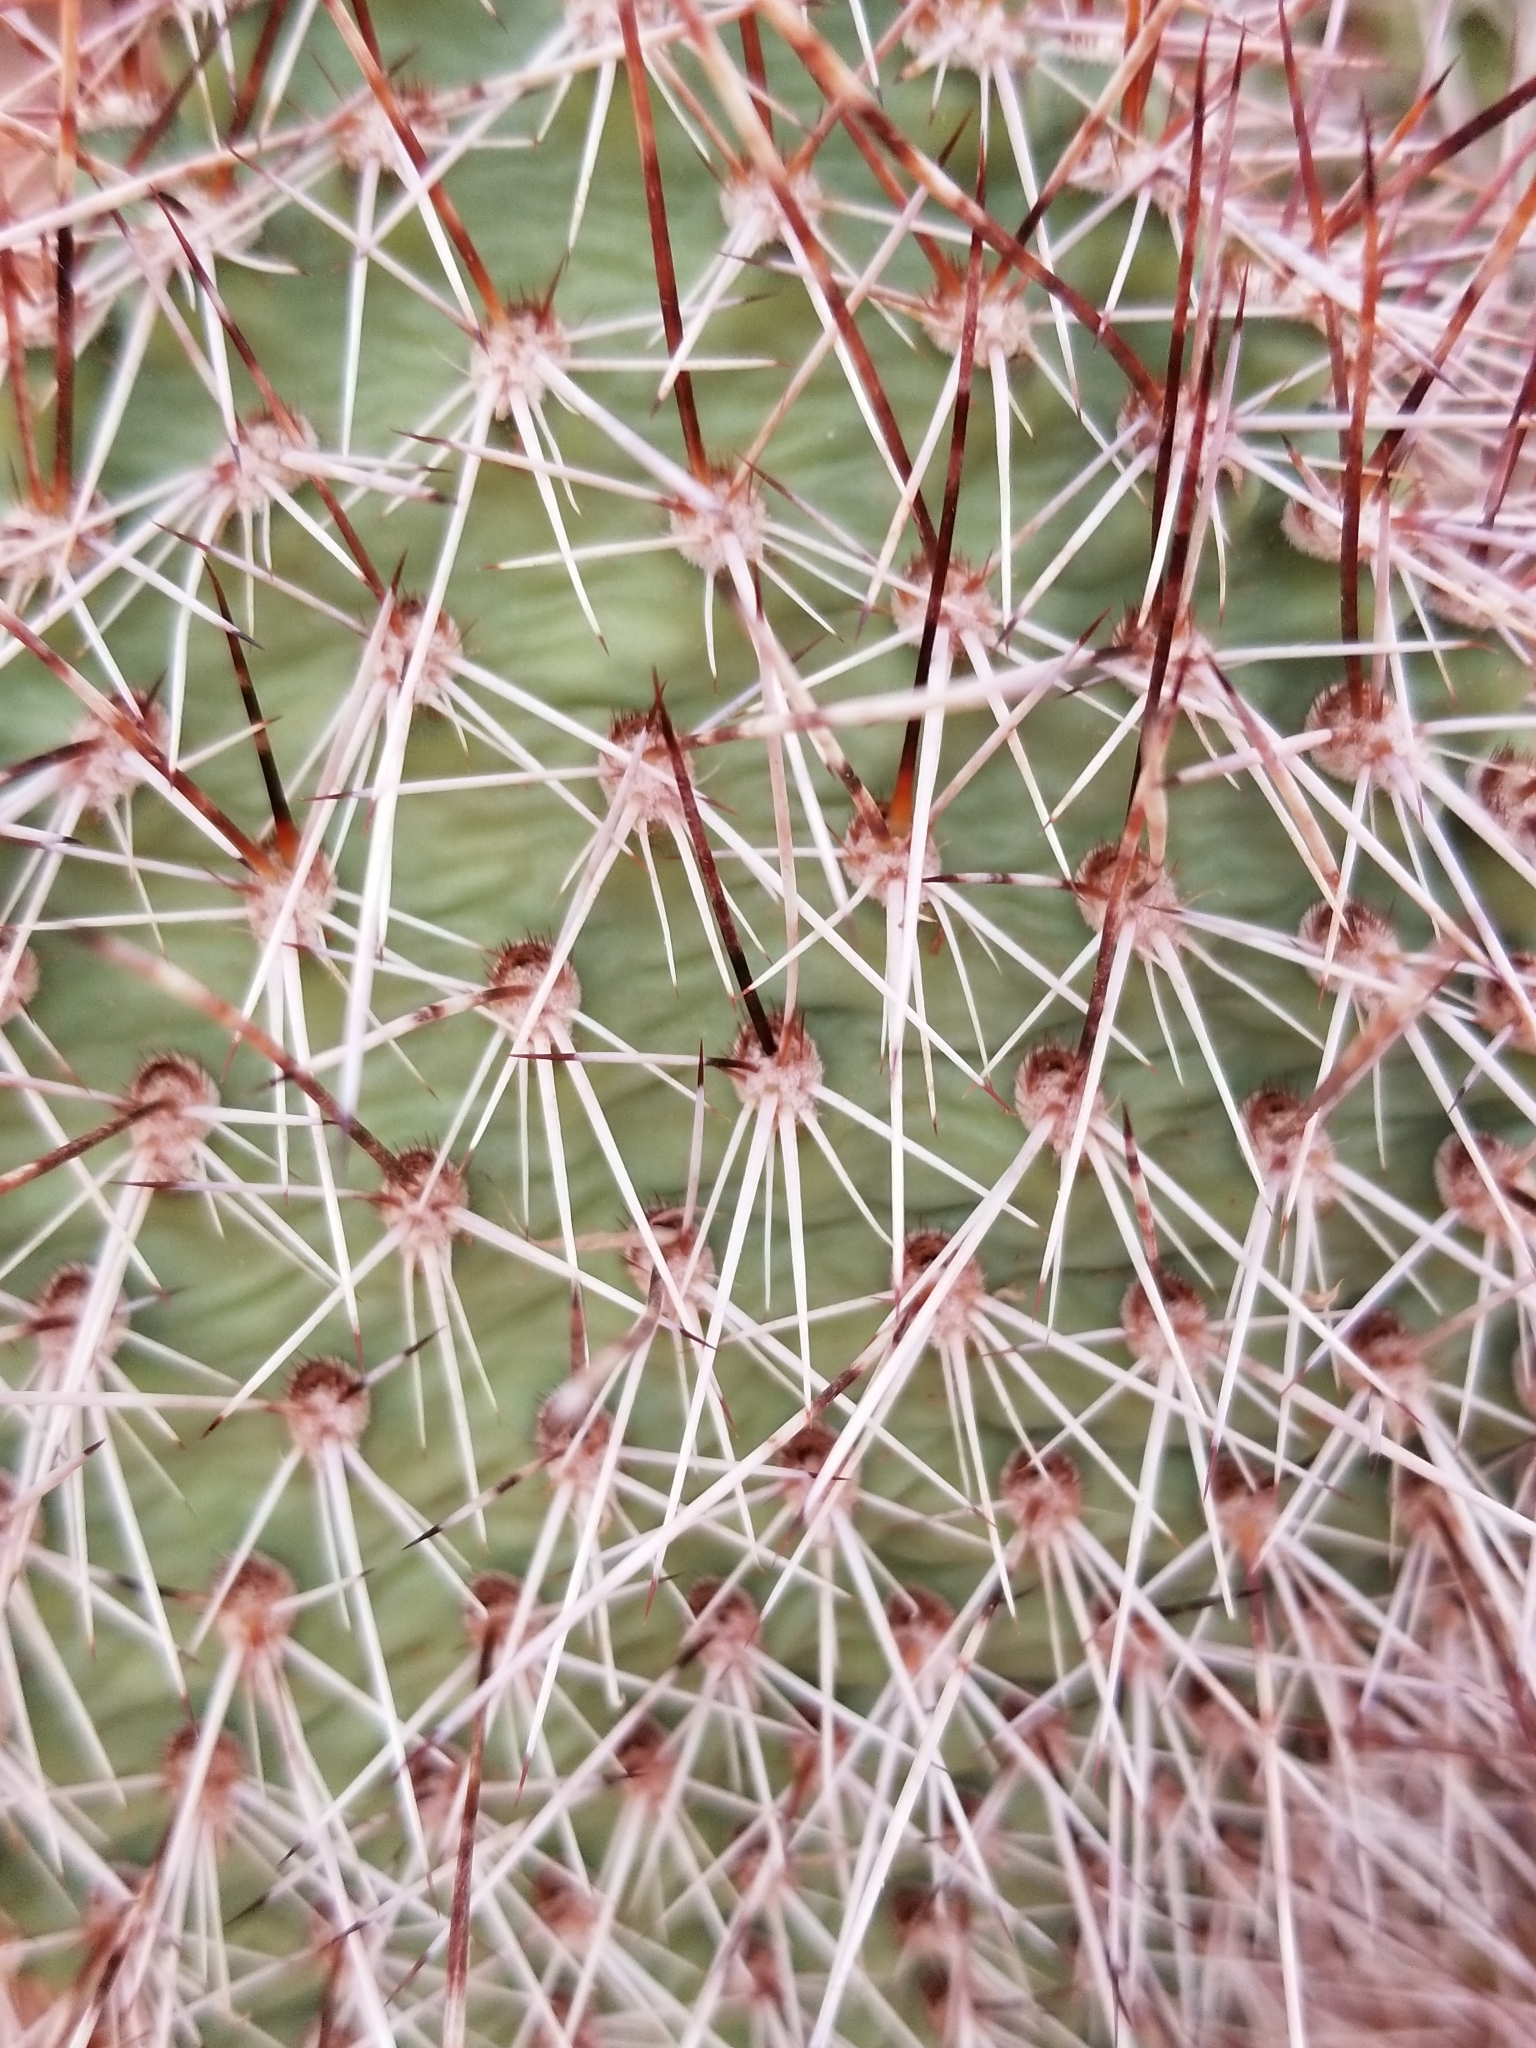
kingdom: Plantae
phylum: Tracheophyta
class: Magnoliopsida
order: Caryophyllales
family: Cactaceae
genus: Opuntia
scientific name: Opuntia polyacantha
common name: Plains prickly-pear
